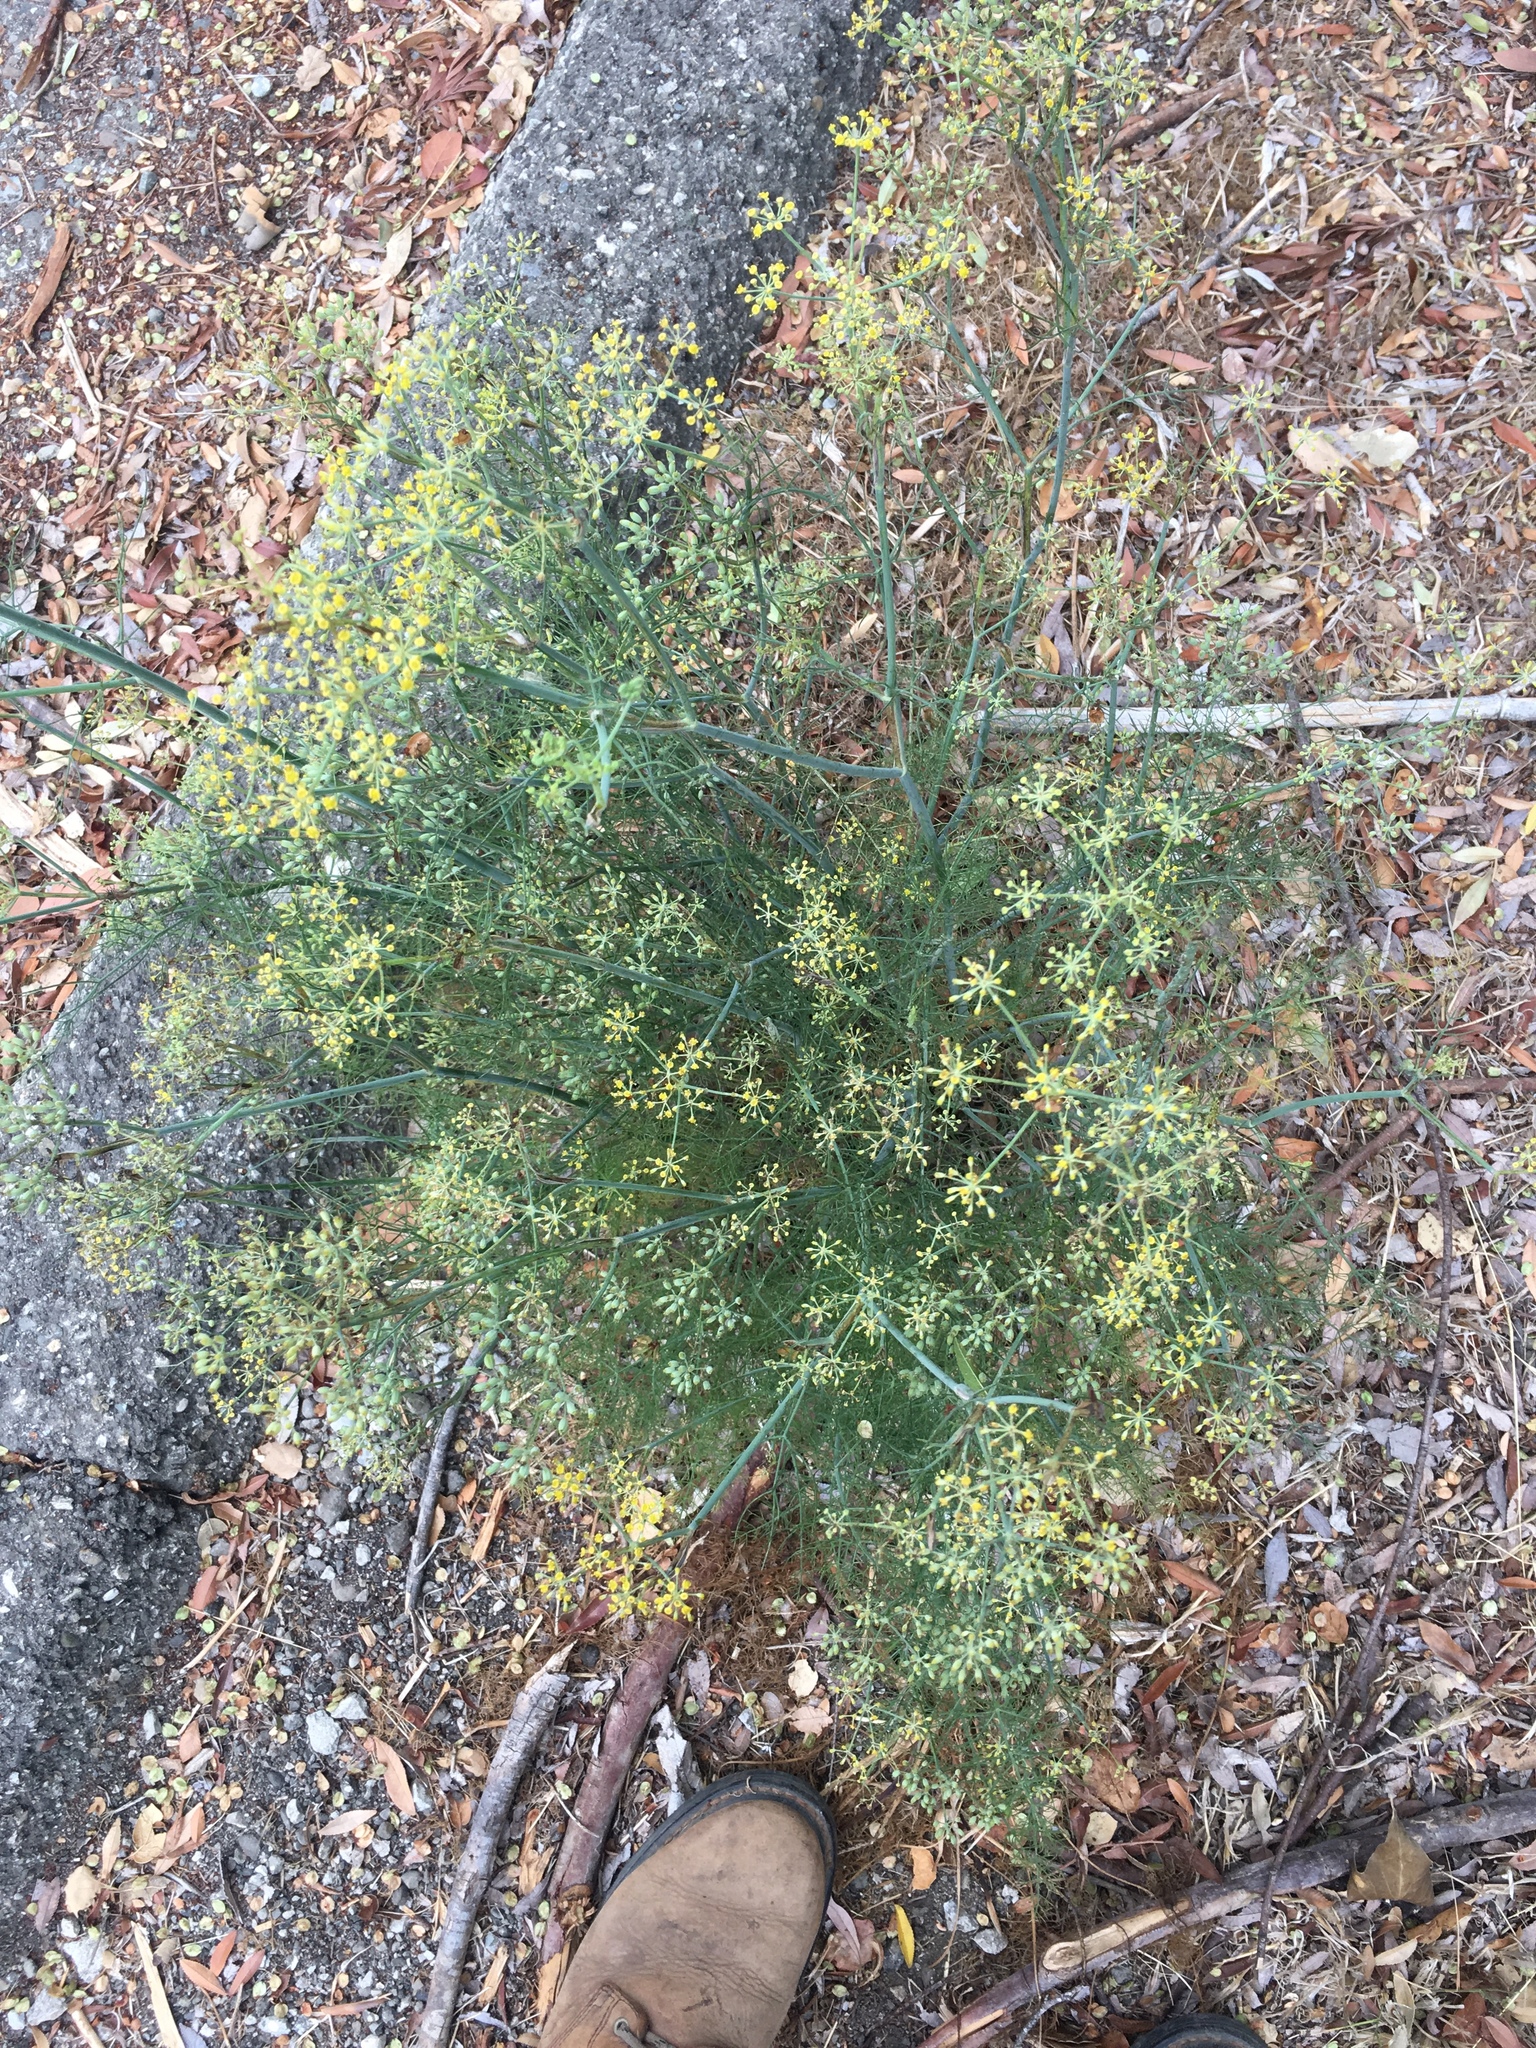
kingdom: Plantae
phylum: Tracheophyta
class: Magnoliopsida
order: Apiales
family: Apiaceae
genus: Foeniculum
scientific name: Foeniculum vulgare
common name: Fennel
